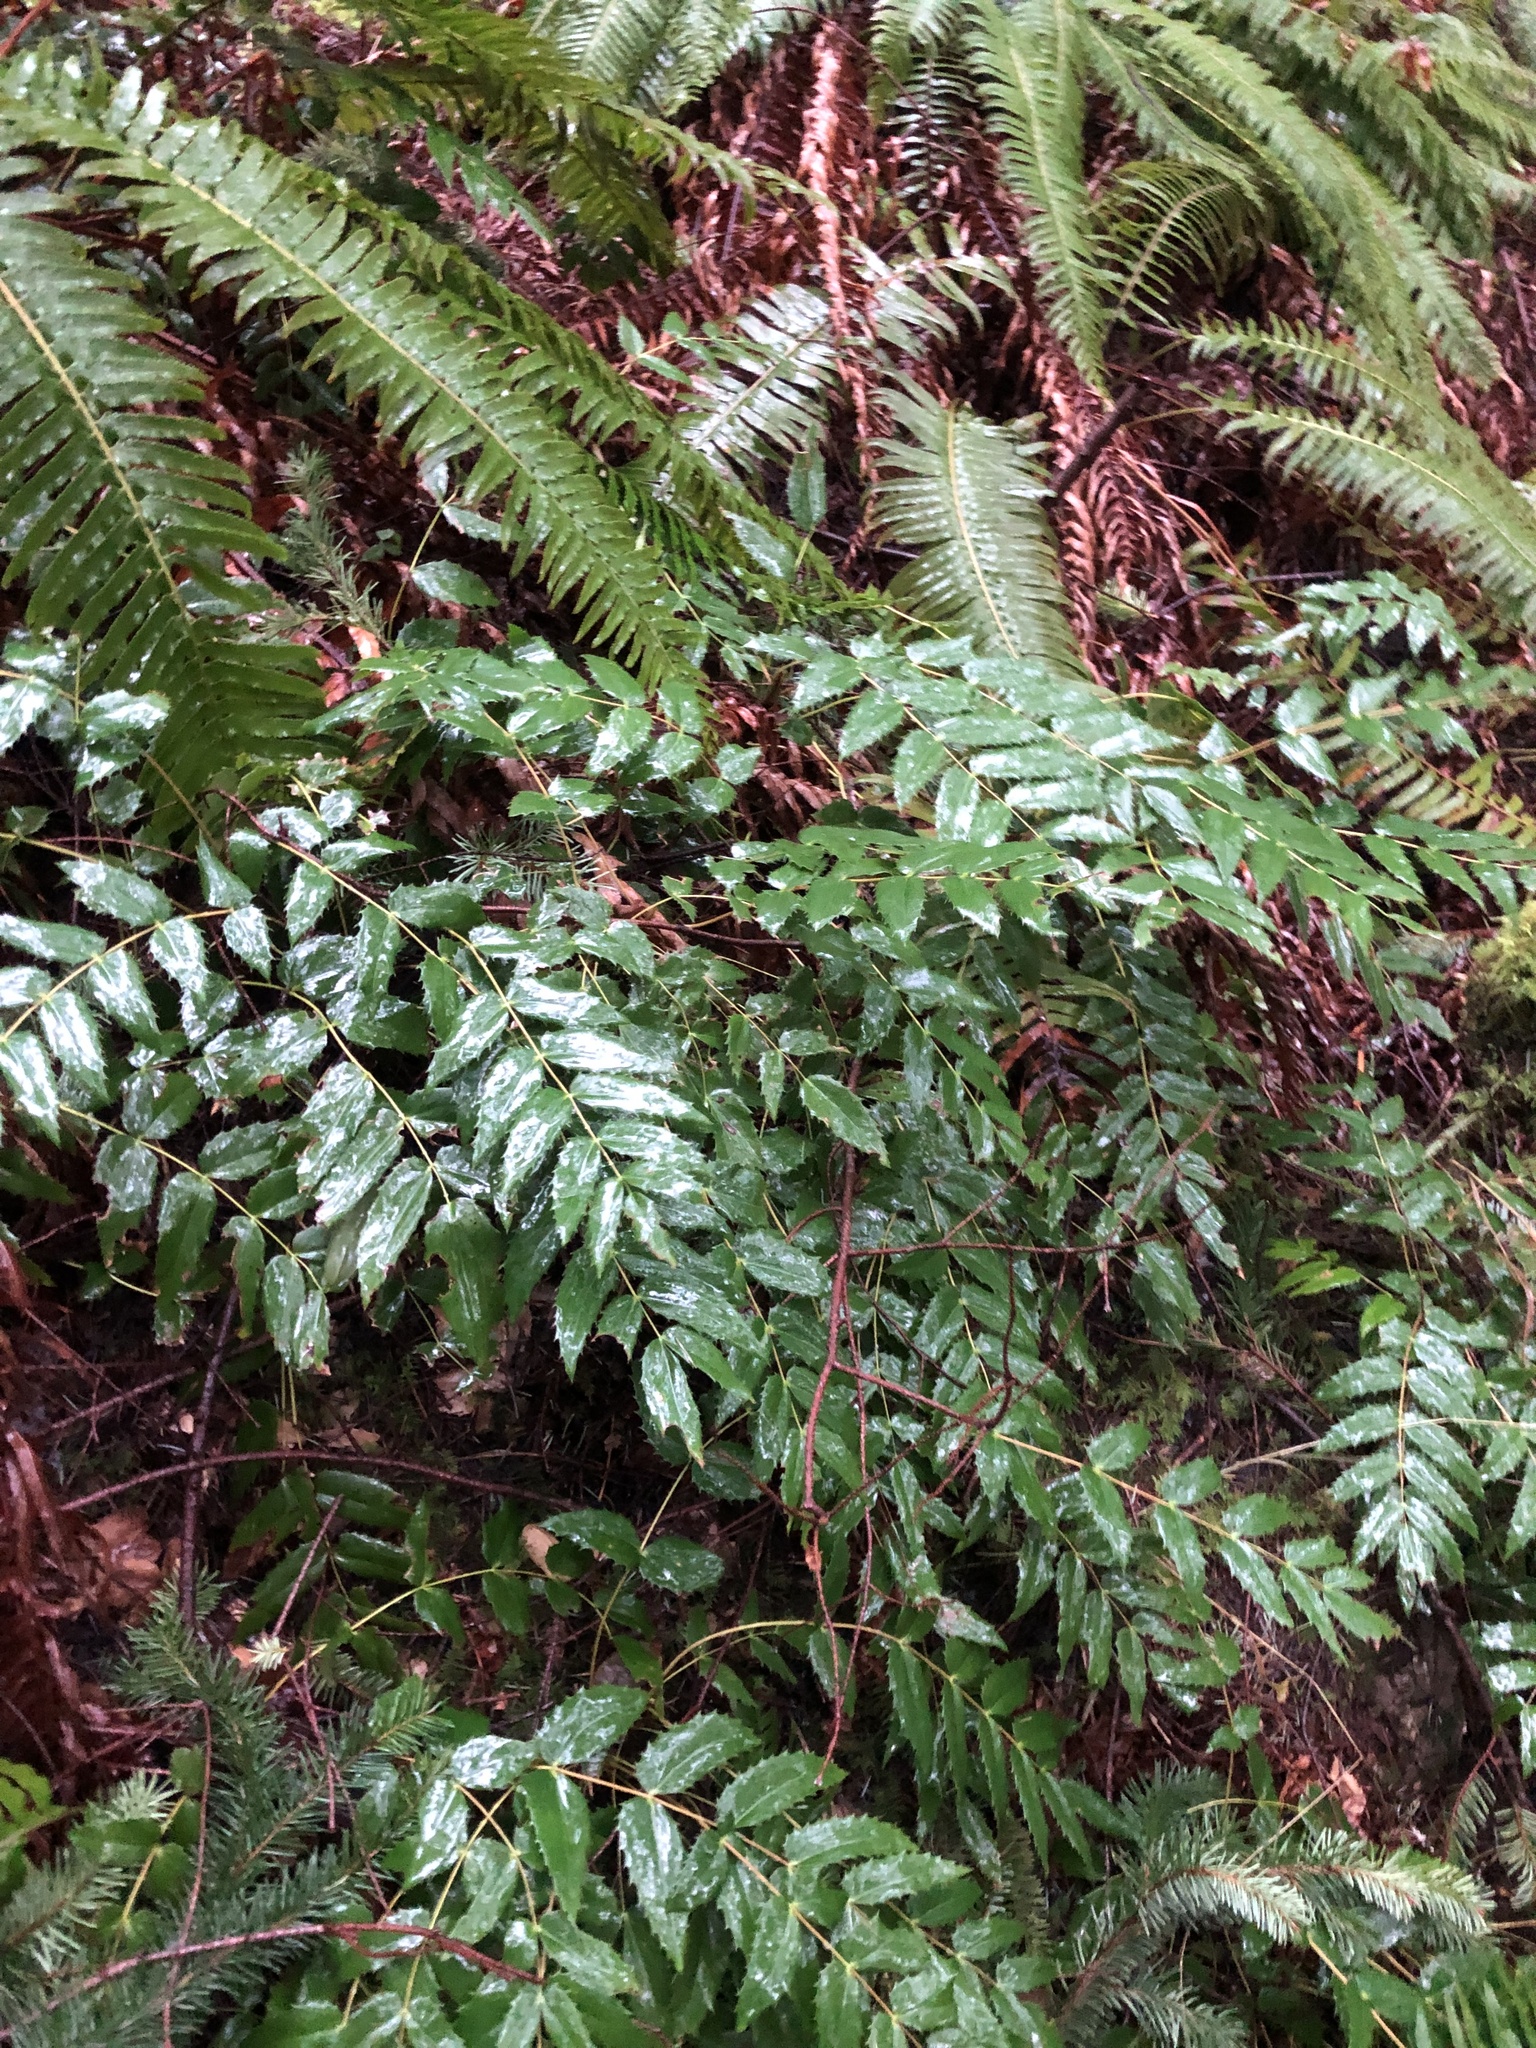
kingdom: Plantae
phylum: Tracheophyta
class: Magnoliopsida
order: Ranunculales
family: Berberidaceae
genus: Mahonia
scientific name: Mahonia nervosa
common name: Cascade oregon-grape
